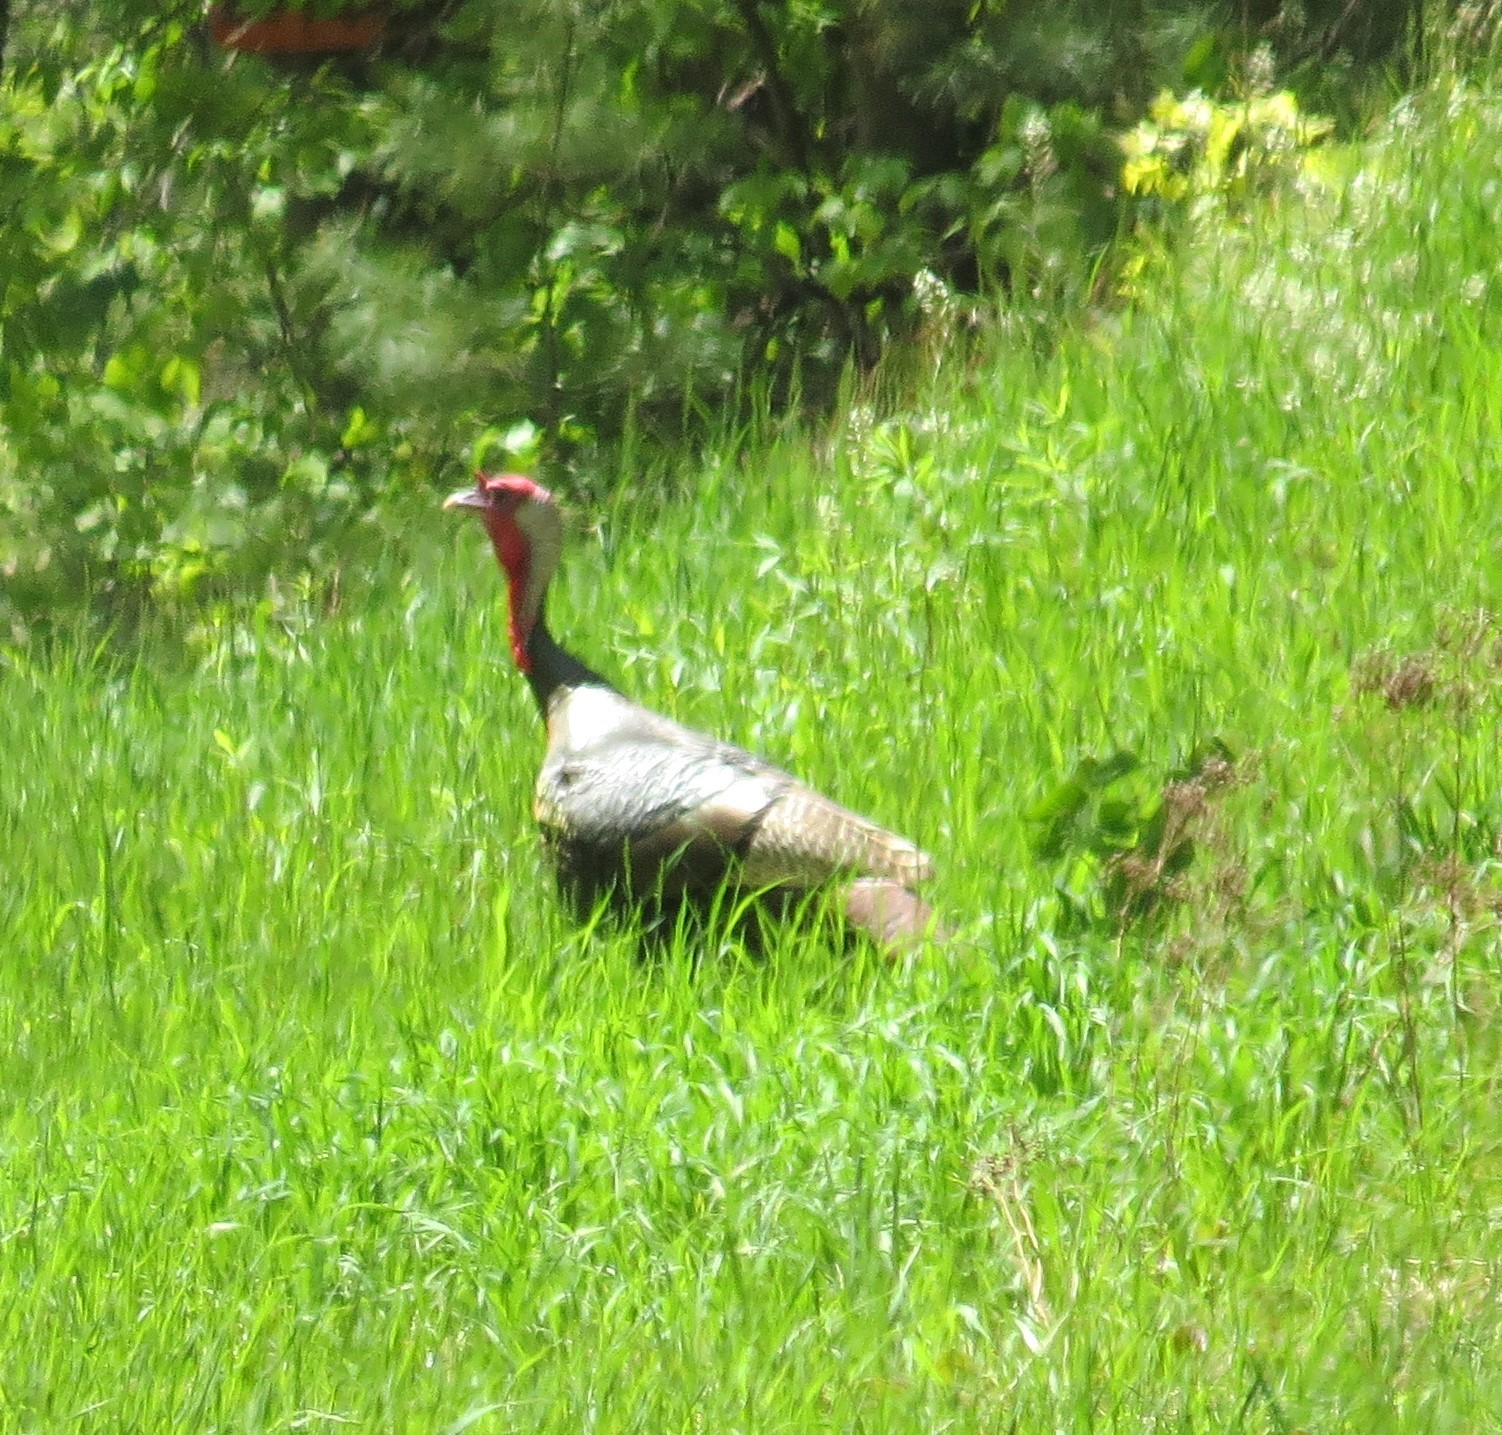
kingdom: Animalia
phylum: Chordata
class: Aves
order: Galliformes
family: Phasianidae
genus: Meleagris
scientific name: Meleagris gallopavo
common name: Wild turkey
